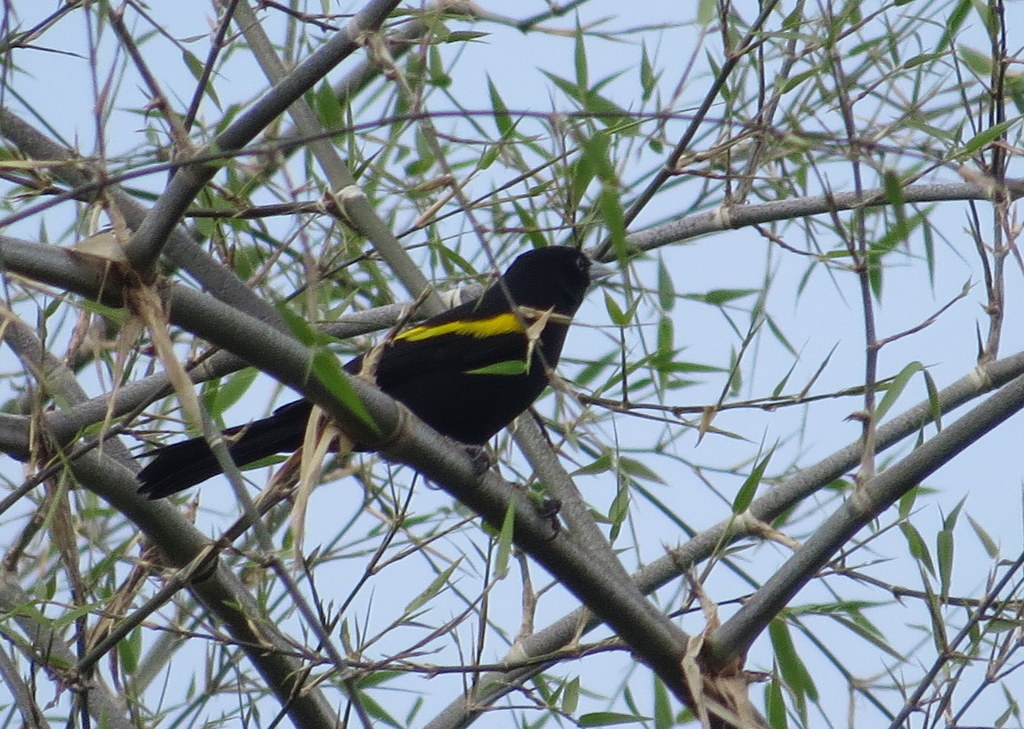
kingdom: Animalia
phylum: Chordata
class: Aves
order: Passeriformes
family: Icteridae
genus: Cacicus
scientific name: Cacicus chrysopterus
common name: Golden-winged cacique
